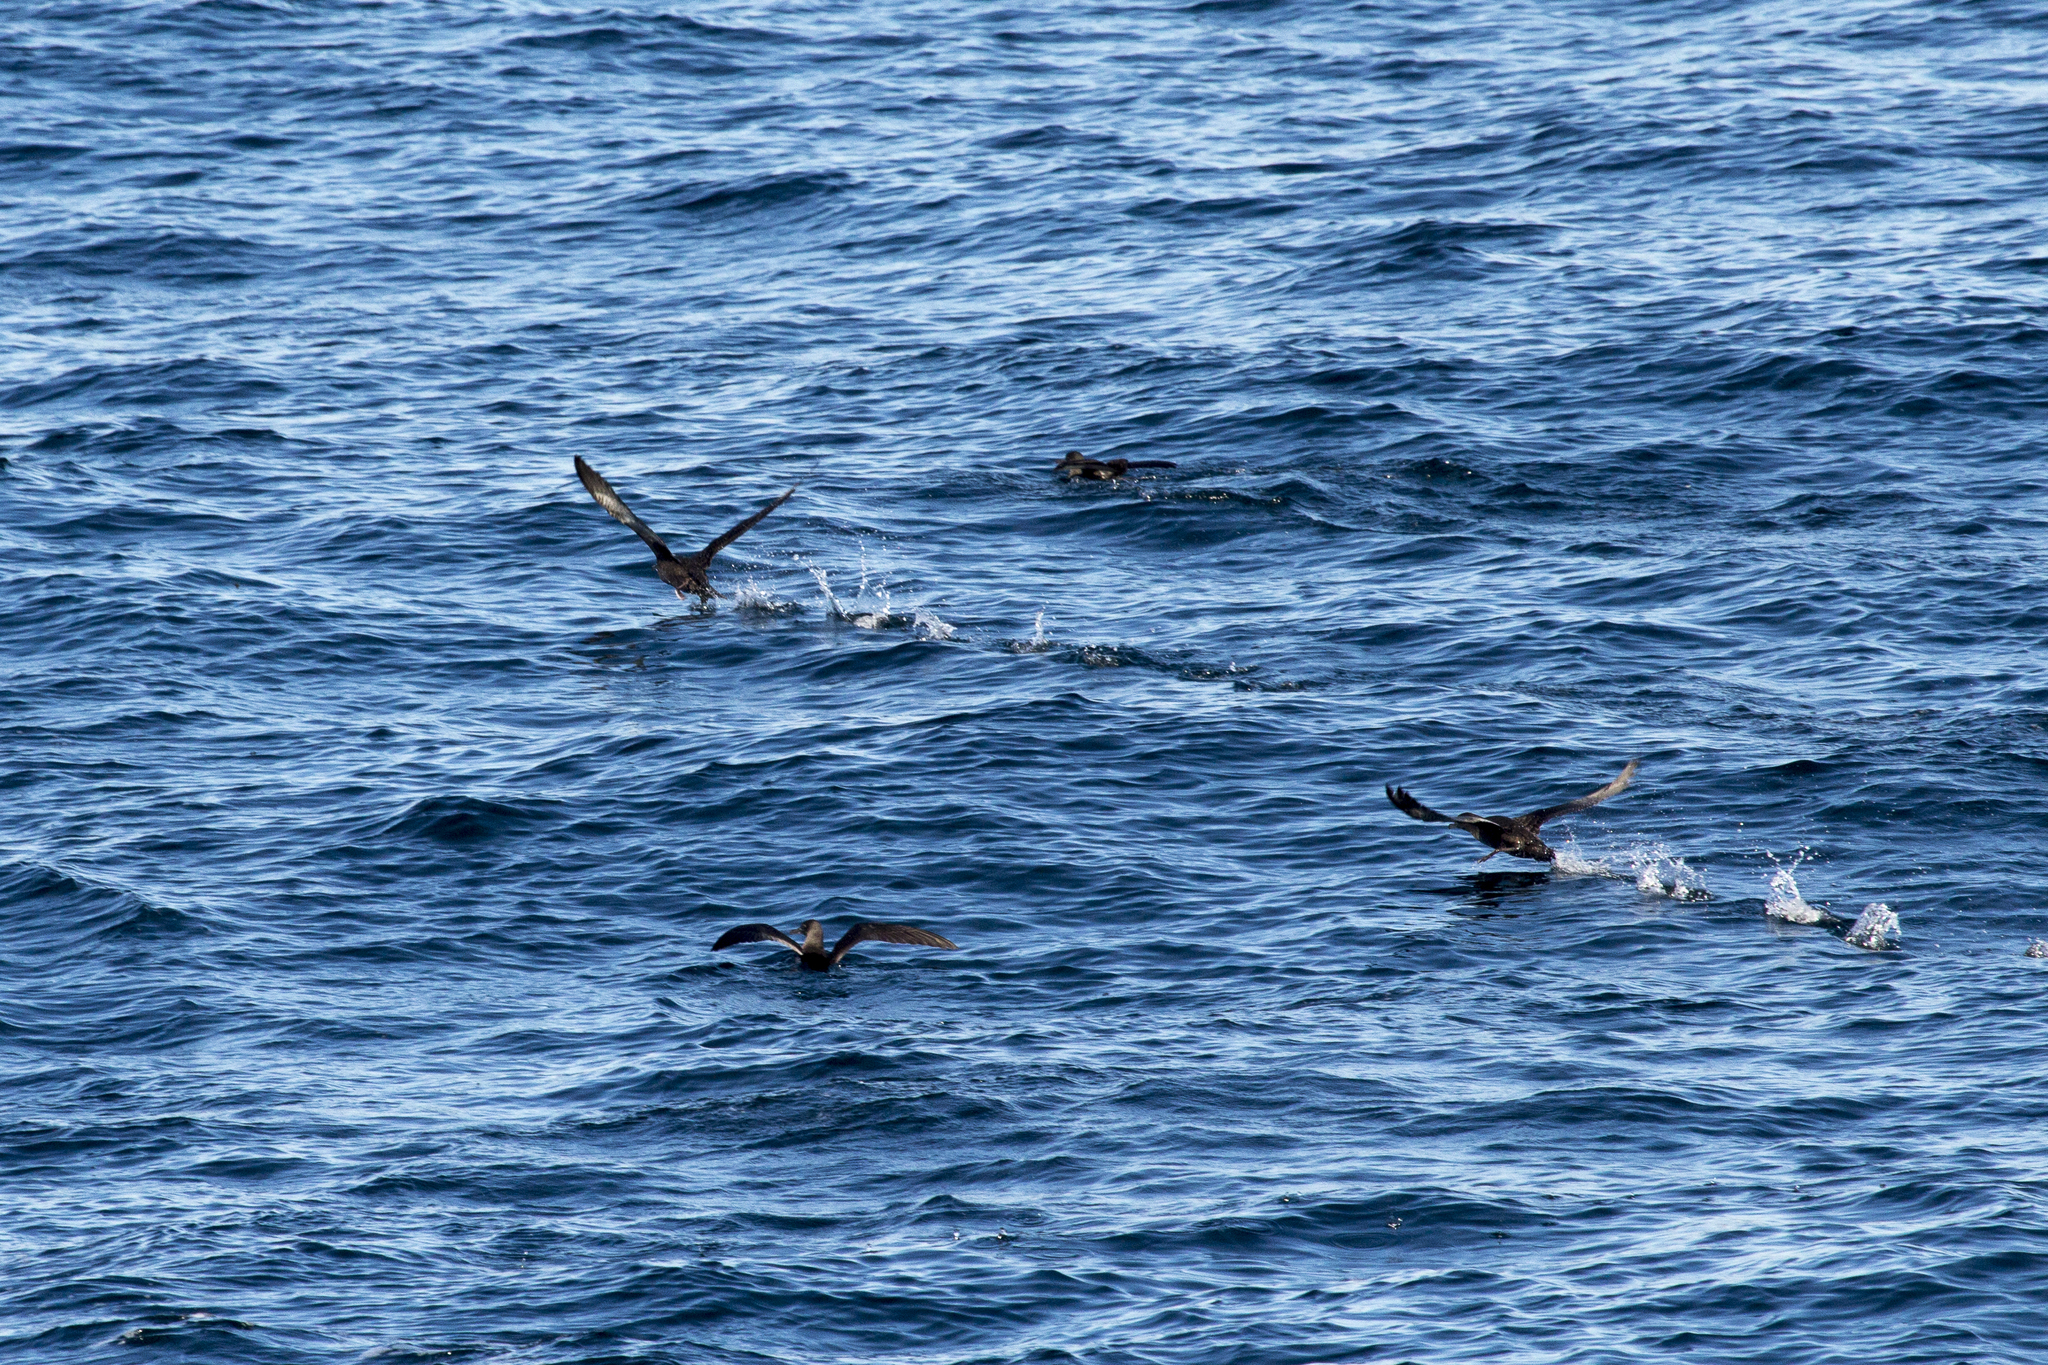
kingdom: Animalia
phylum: Chordata
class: Aves
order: Procellariiformes
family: Procellariidae
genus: Puffinus
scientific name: Puffinus griseus
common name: Sooty shearwater
